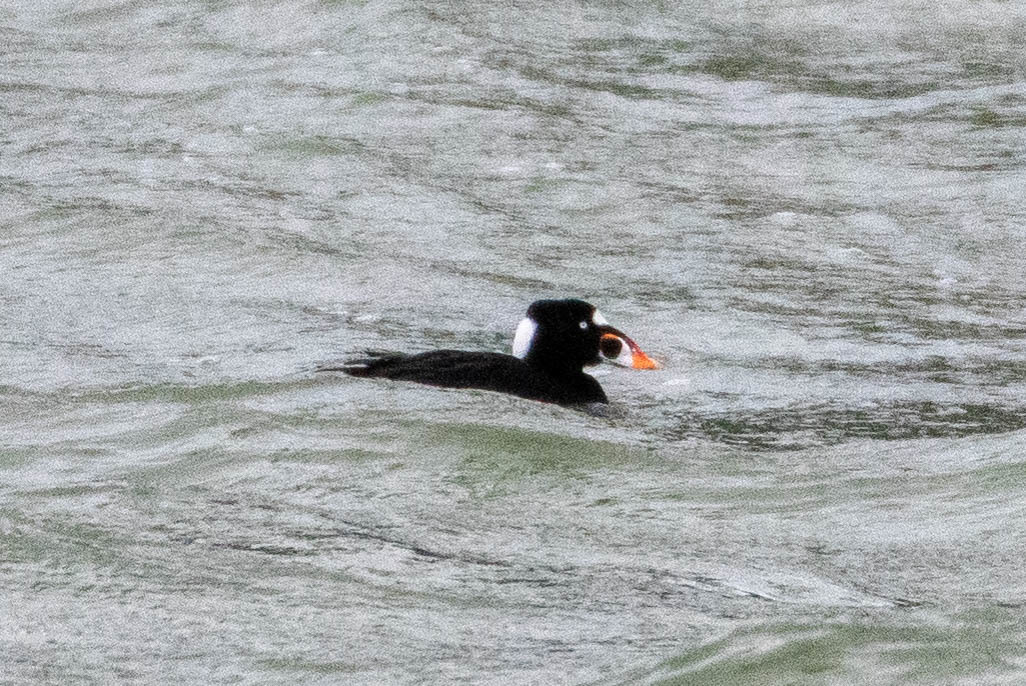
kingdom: Animalia
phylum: Chordata
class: Aves
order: Anseriformes
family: Anatidae
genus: Melanitta
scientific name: Melanitta perspicillata
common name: Surf scoter
